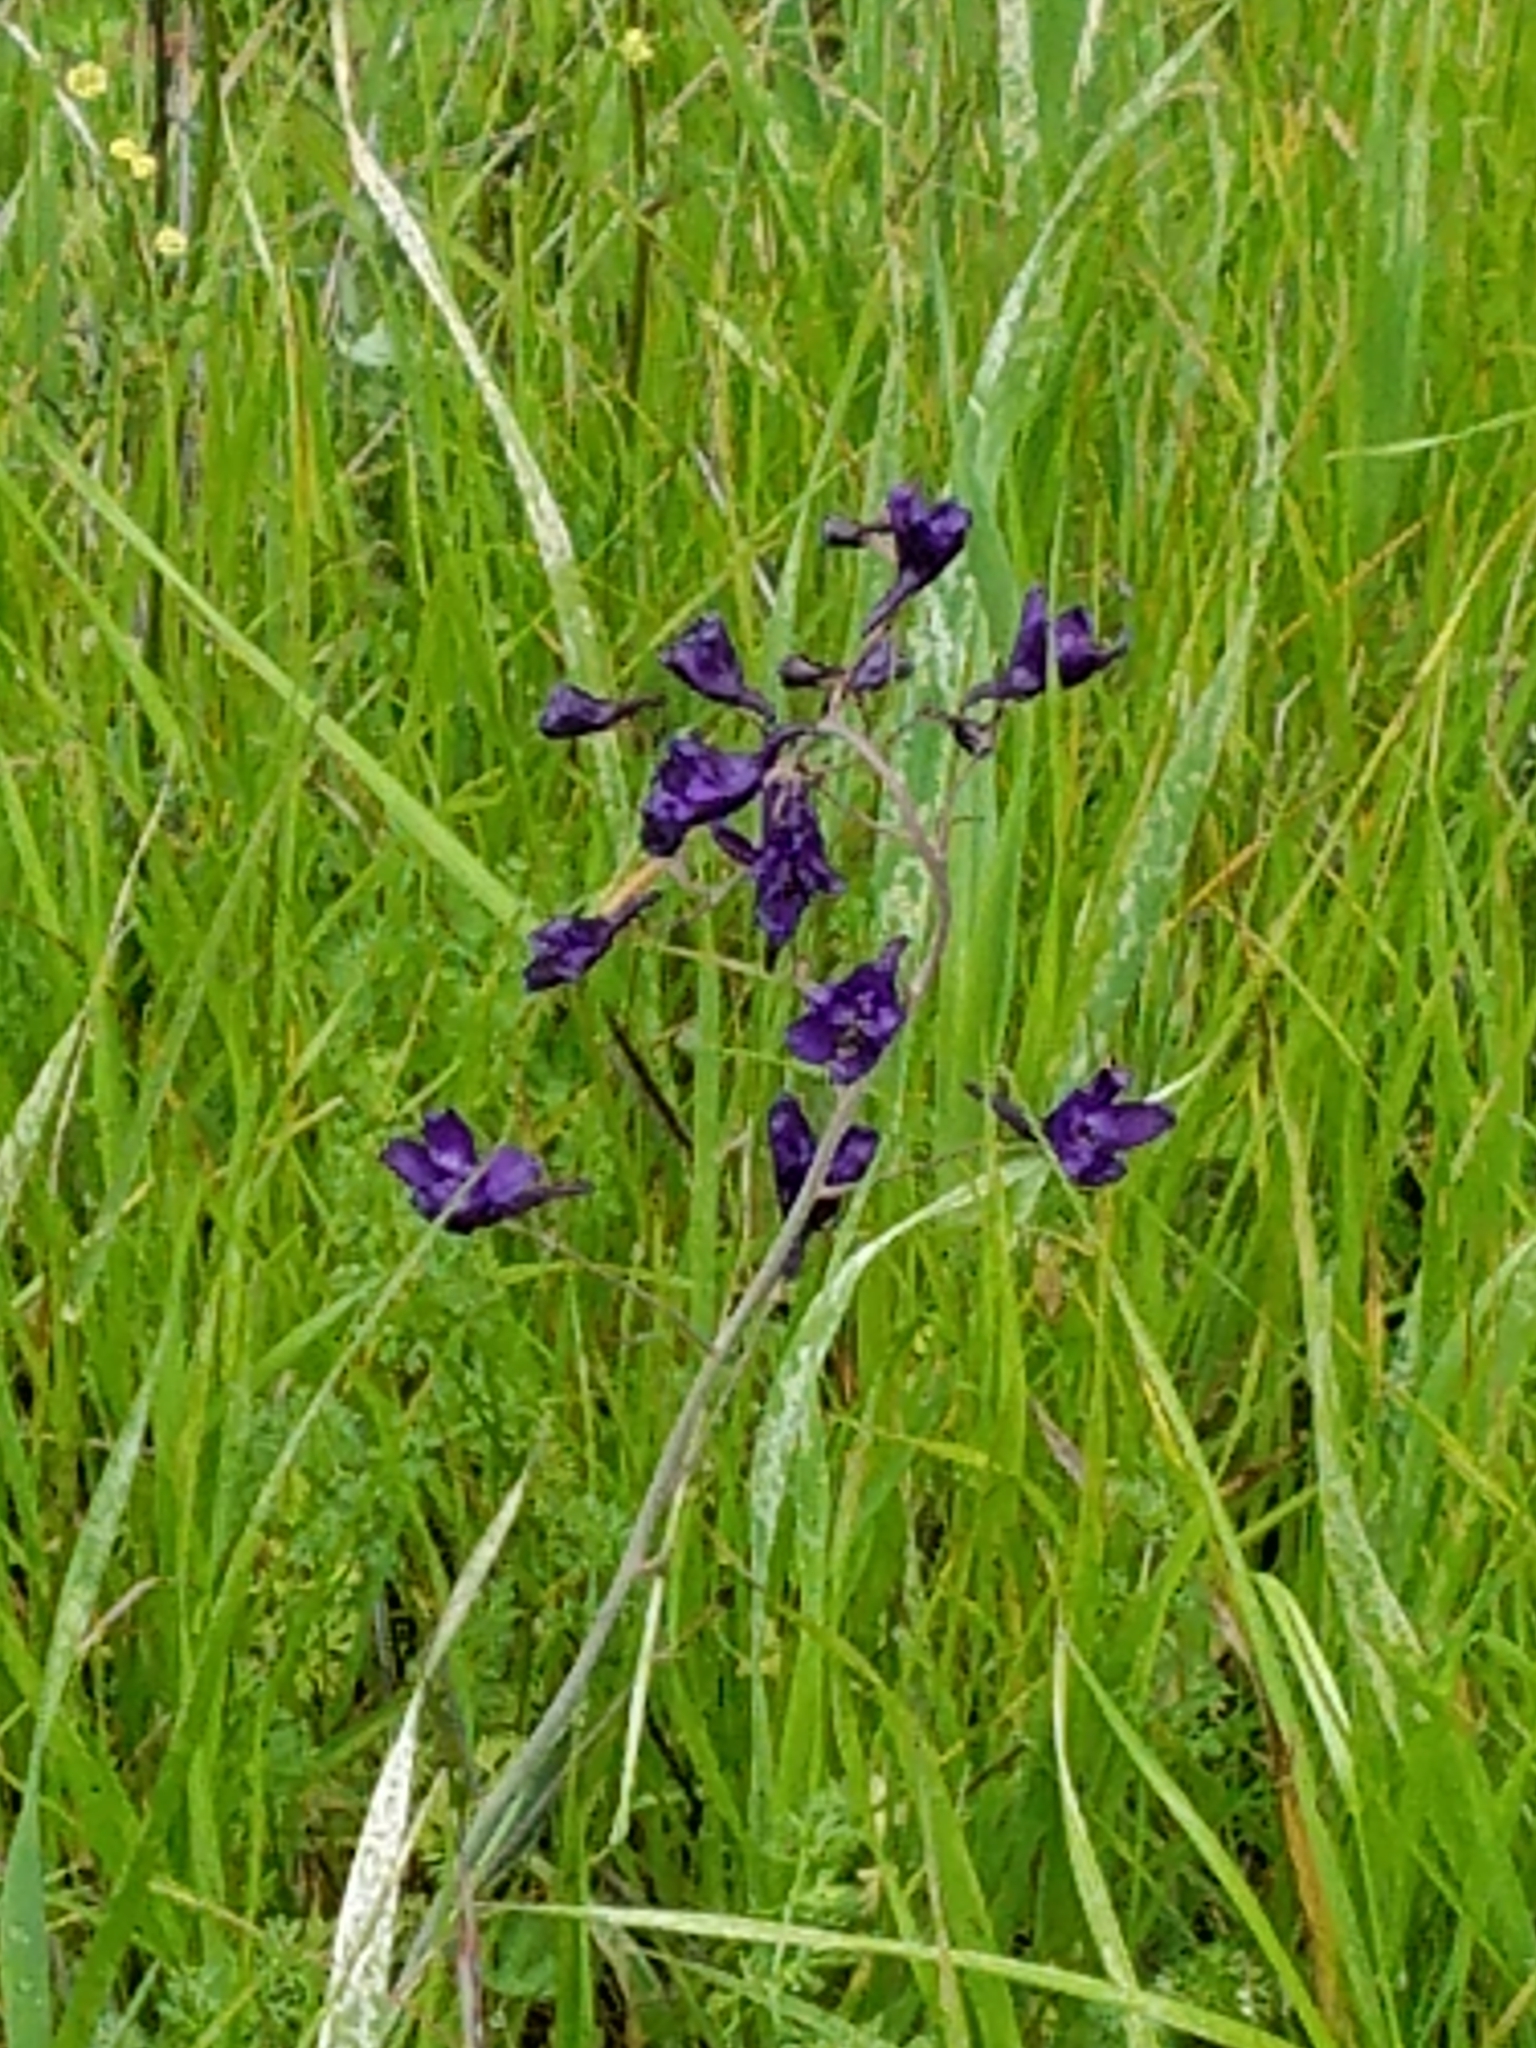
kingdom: Plantae
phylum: Tracheophyta
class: Magnoliopsida
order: Ranunculales
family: Ranunculaceae
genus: Delphinium
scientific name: Delphinium patens
